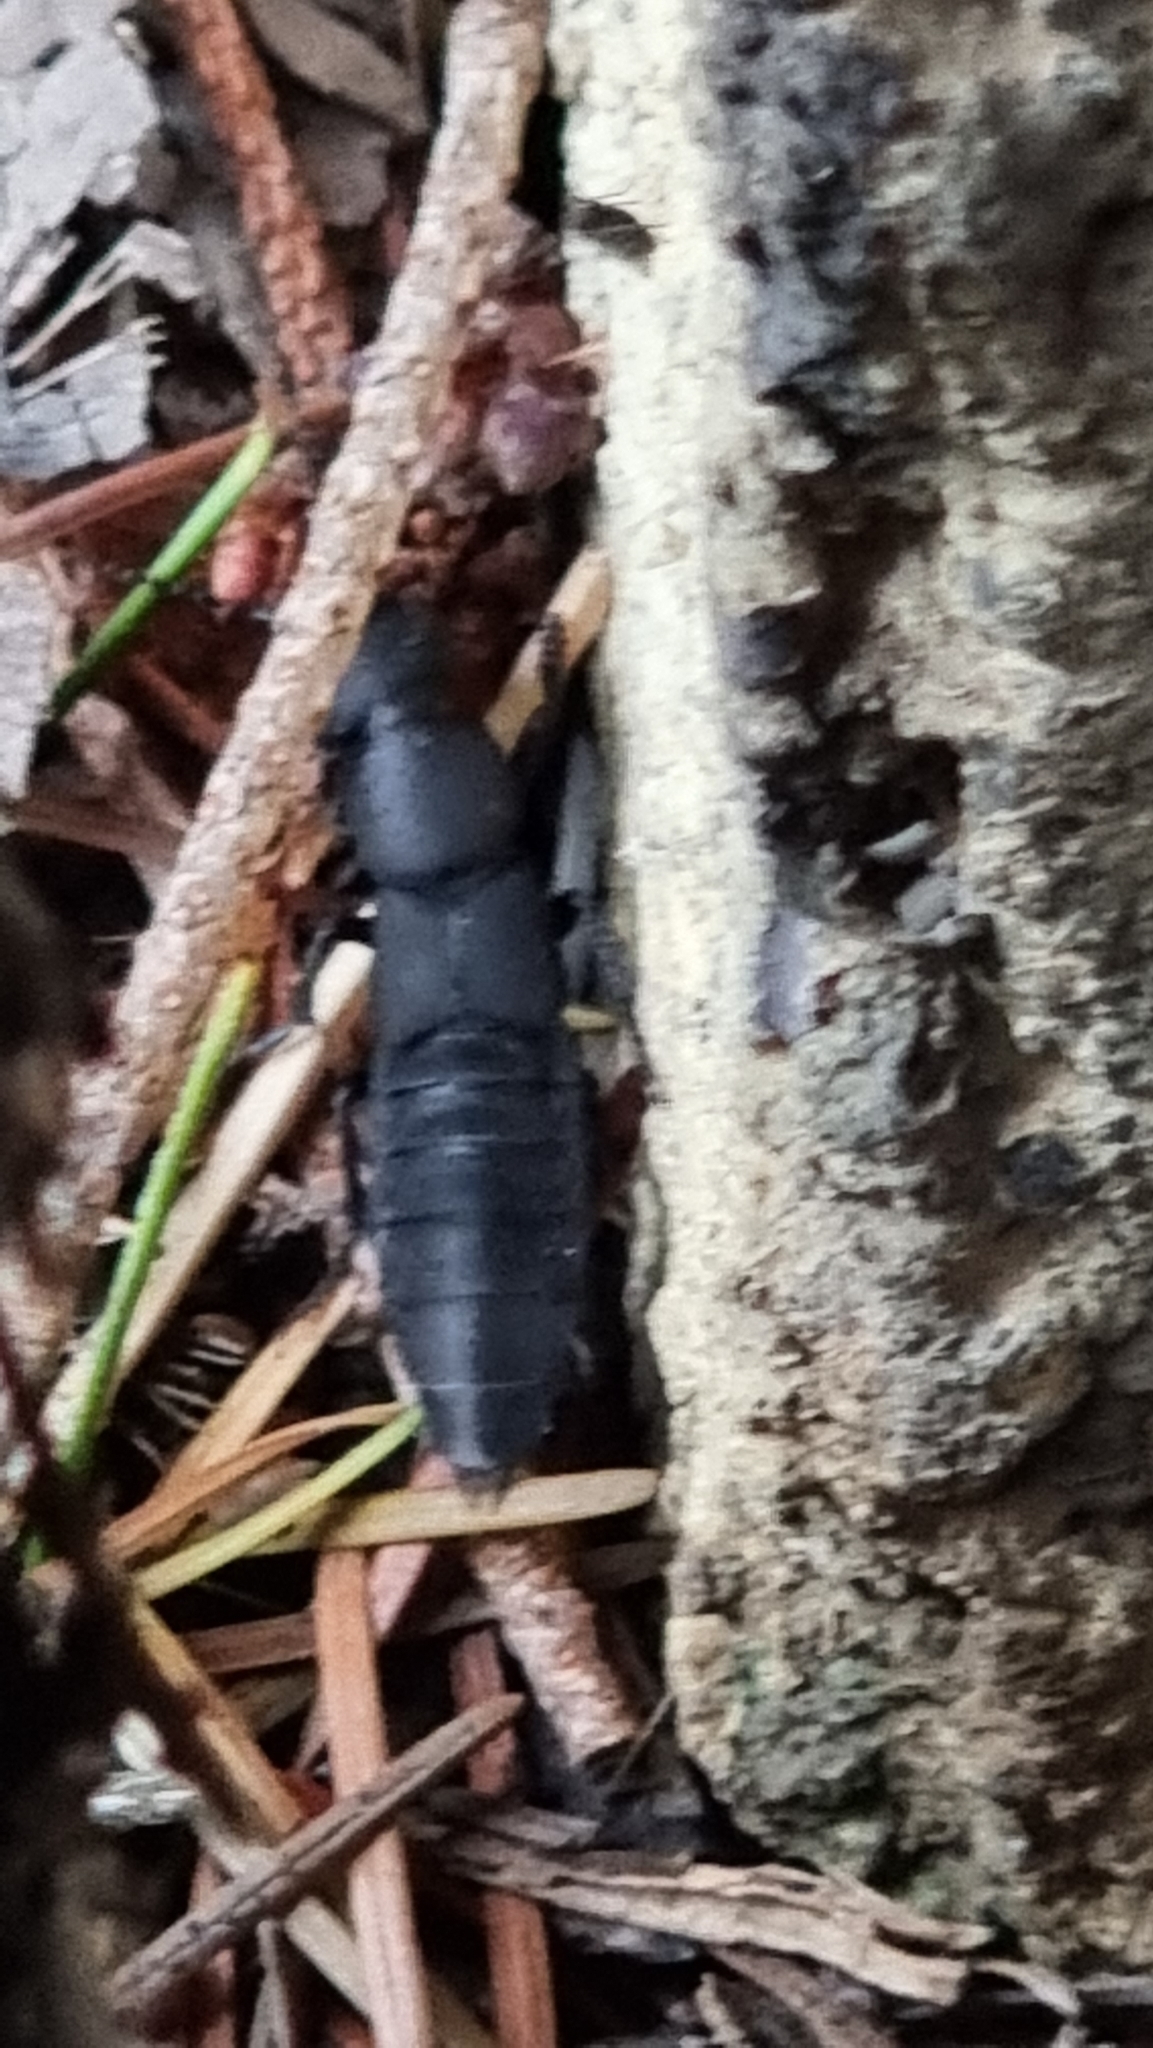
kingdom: Animalia
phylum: Arthropoda
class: Insecta
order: Coleoptera
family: Staphylinidae
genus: Ocypus
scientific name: Ocypus olens
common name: Devil's coach-horse
